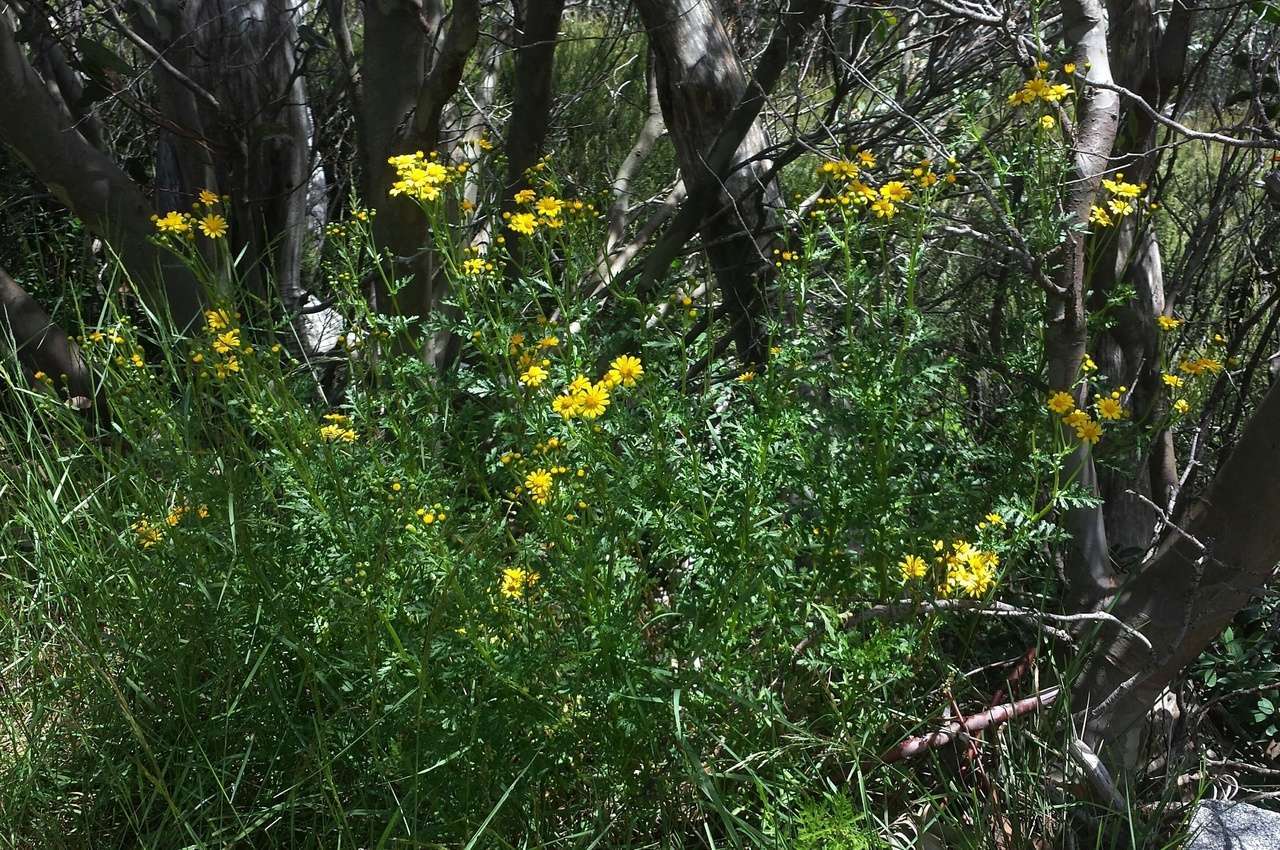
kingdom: Plantae
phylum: Tracheophyta
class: Magnoliopsida
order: Asterales
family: Asteraceae
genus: Senecio
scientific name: Senecio pinnatifolius
